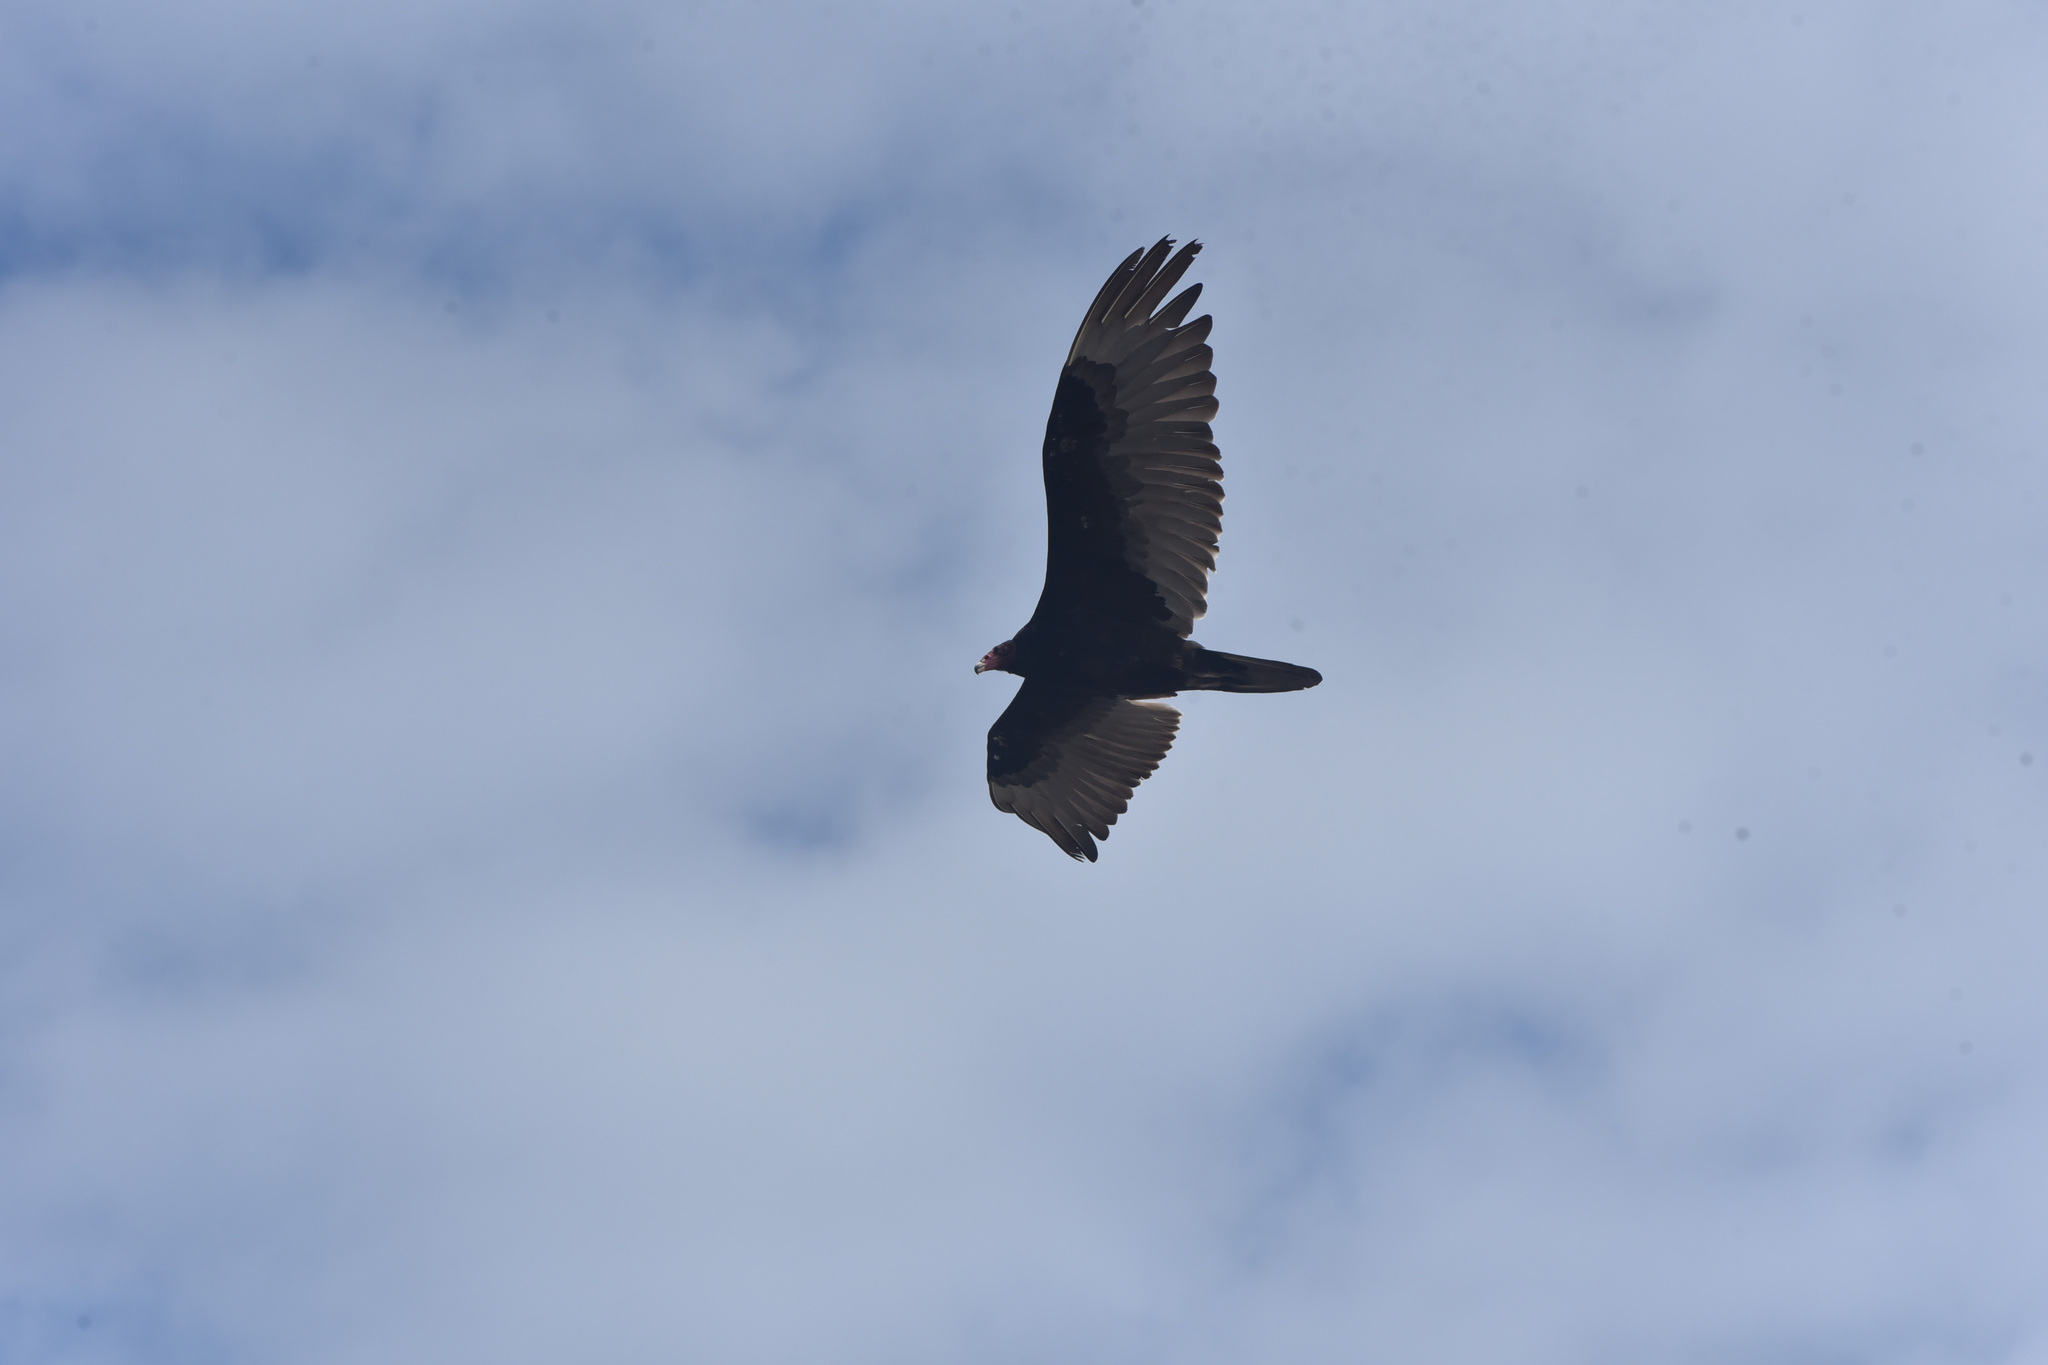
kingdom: Animalia
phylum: Chordata
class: Aves
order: Accipitriformes
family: Cathartidae
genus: Cathartes
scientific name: Cathartes aura
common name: Turkey vulture
